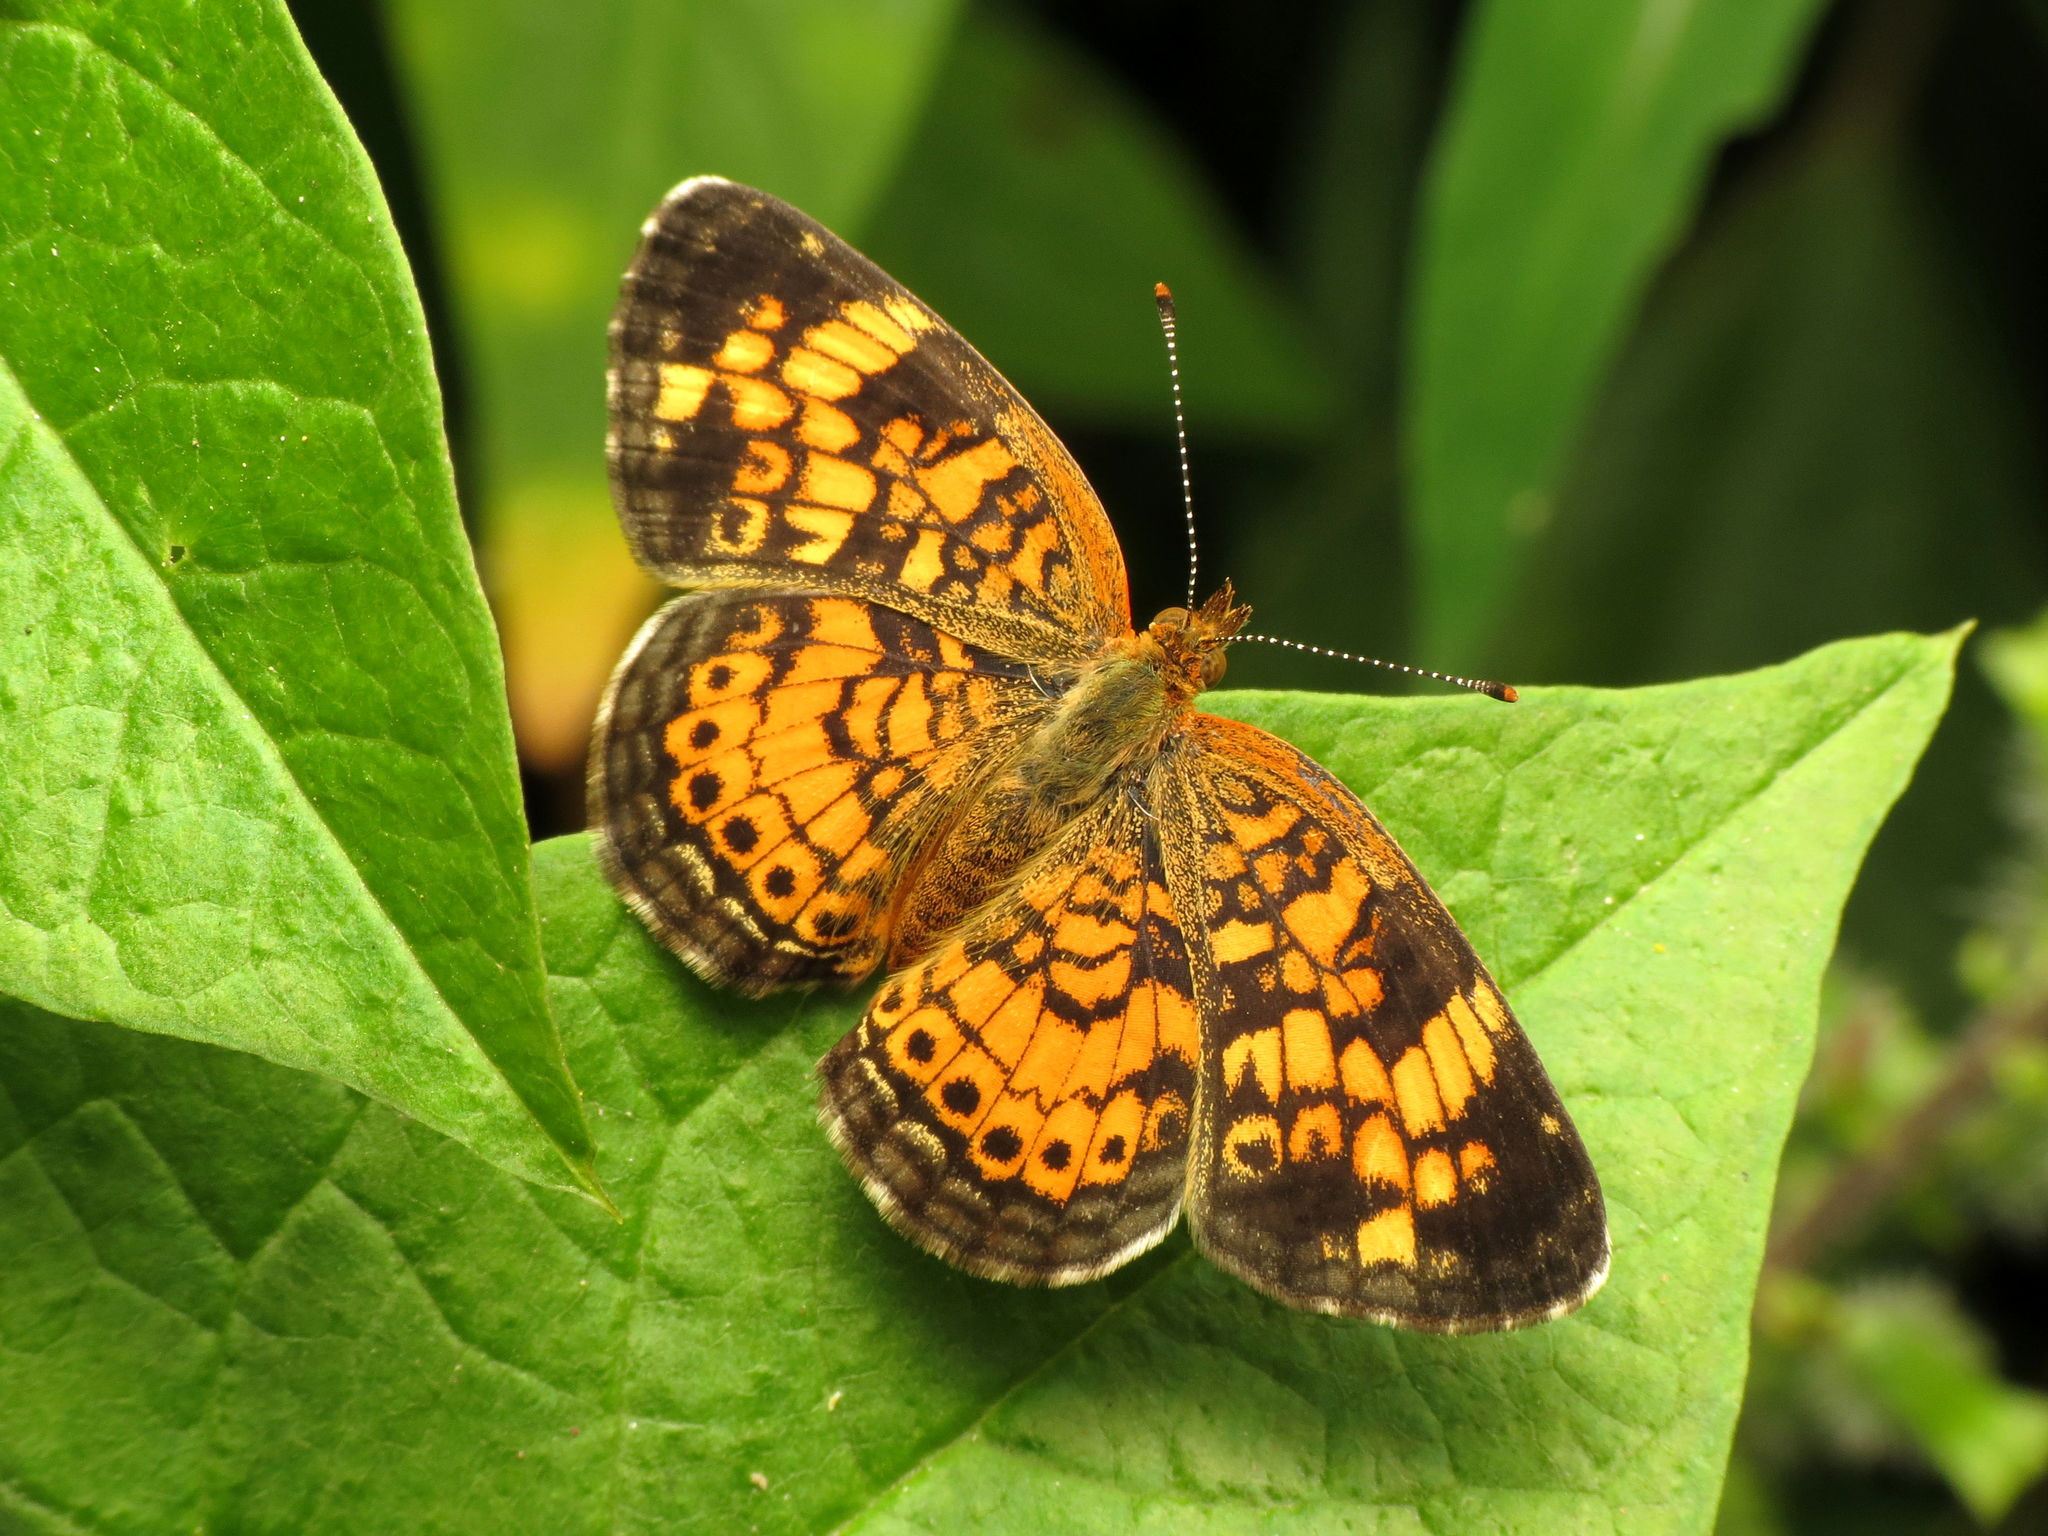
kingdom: Animalia
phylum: Arthropoda
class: Insecta
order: Lepidoptera
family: Nymphalidae
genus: Phyciodes
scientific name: Phyciodes tharos
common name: Pearl crescent
